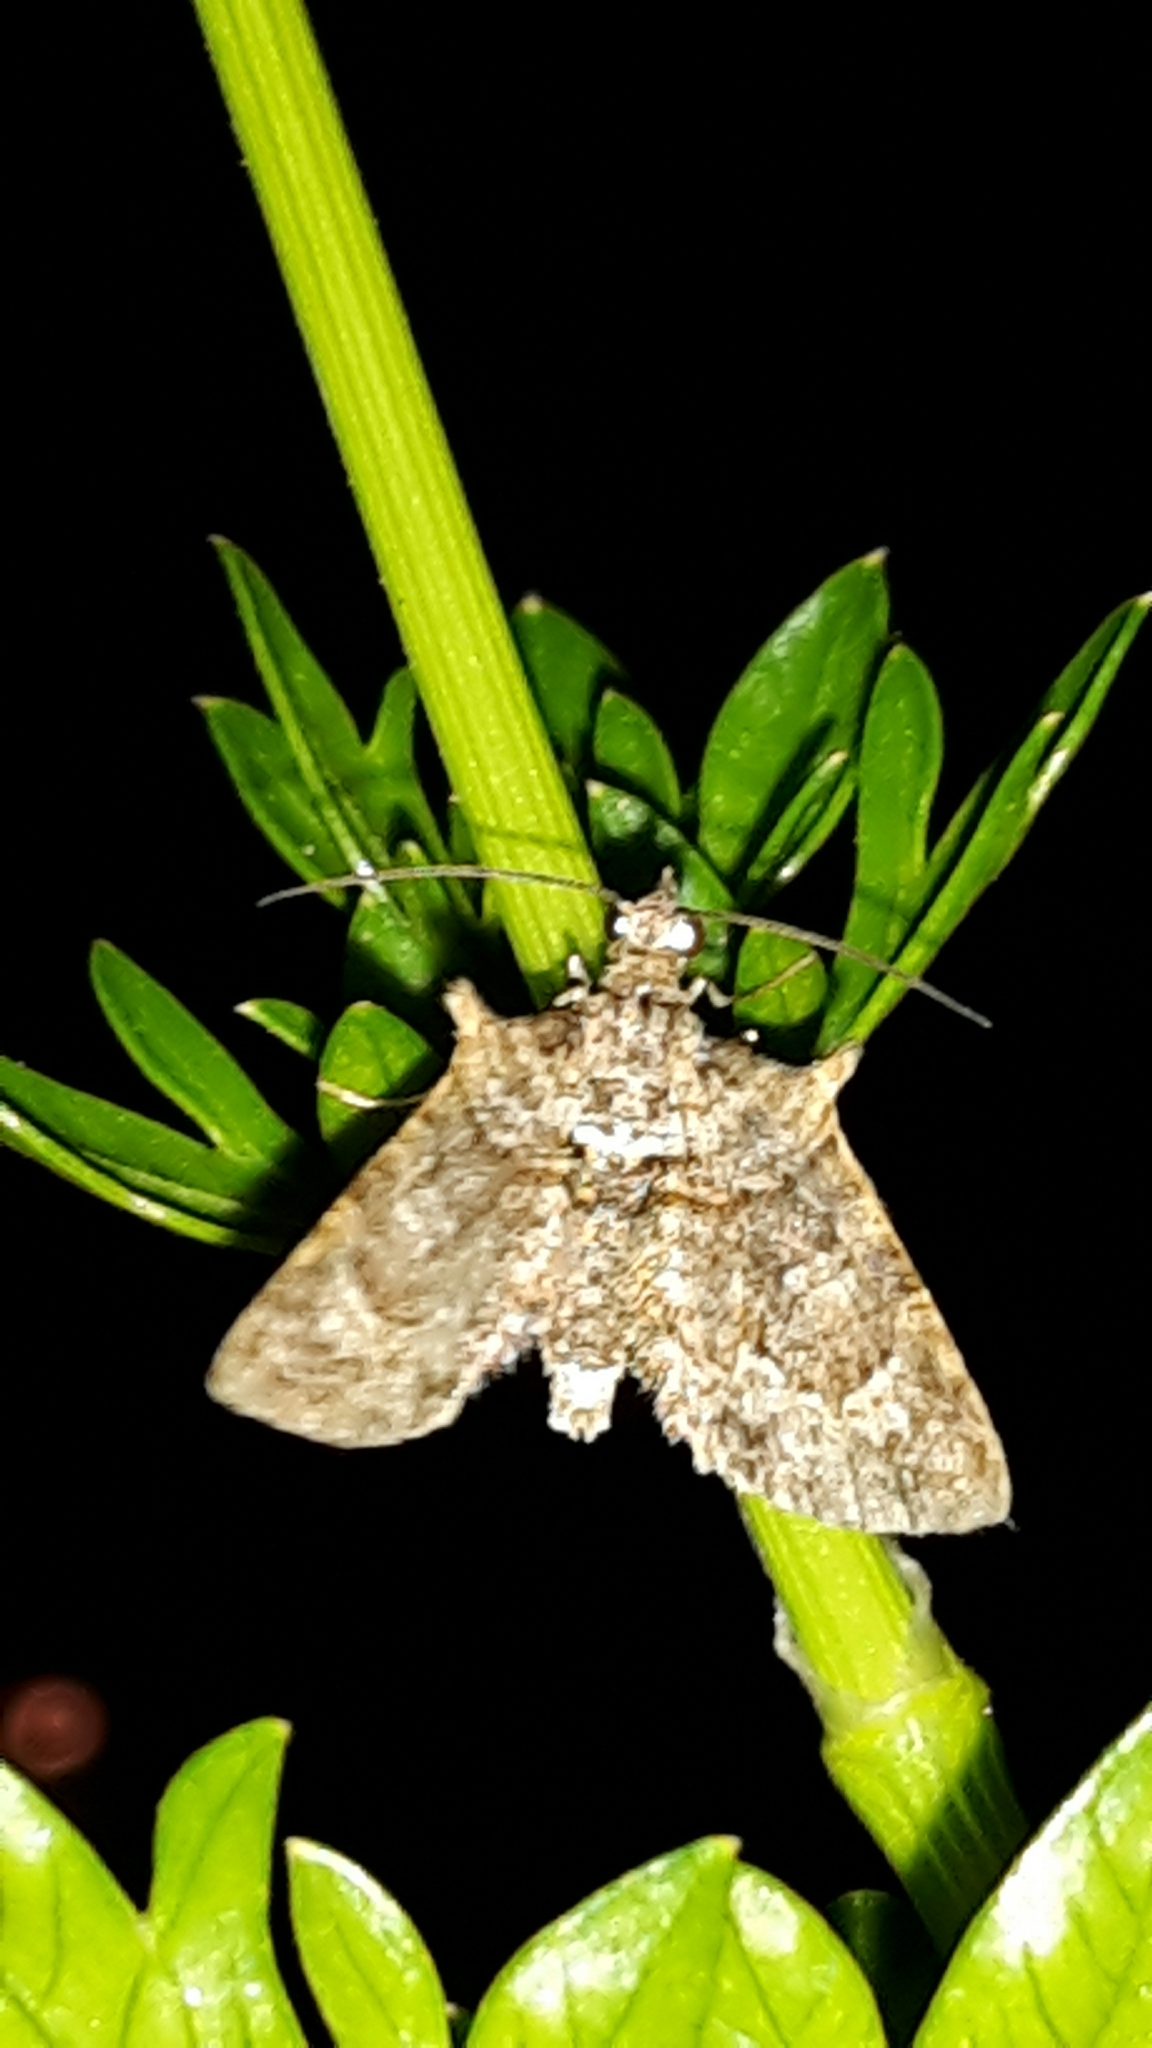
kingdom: Animalia
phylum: Arthropoda
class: Insecta
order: Lepidoptera
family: Geometridae
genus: Phrissogonus
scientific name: Phrissogonus laticostata
